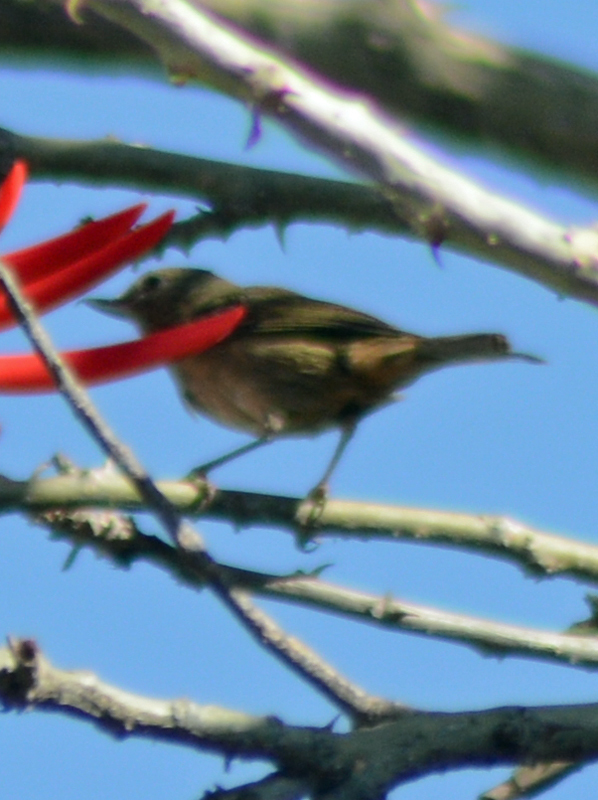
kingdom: Animalia
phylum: Chordata
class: Aves
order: Passeriformes
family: Thraupidae
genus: Diglossa
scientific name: Diglossa baritula
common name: Cinnamon-bellied flowerpiercer
